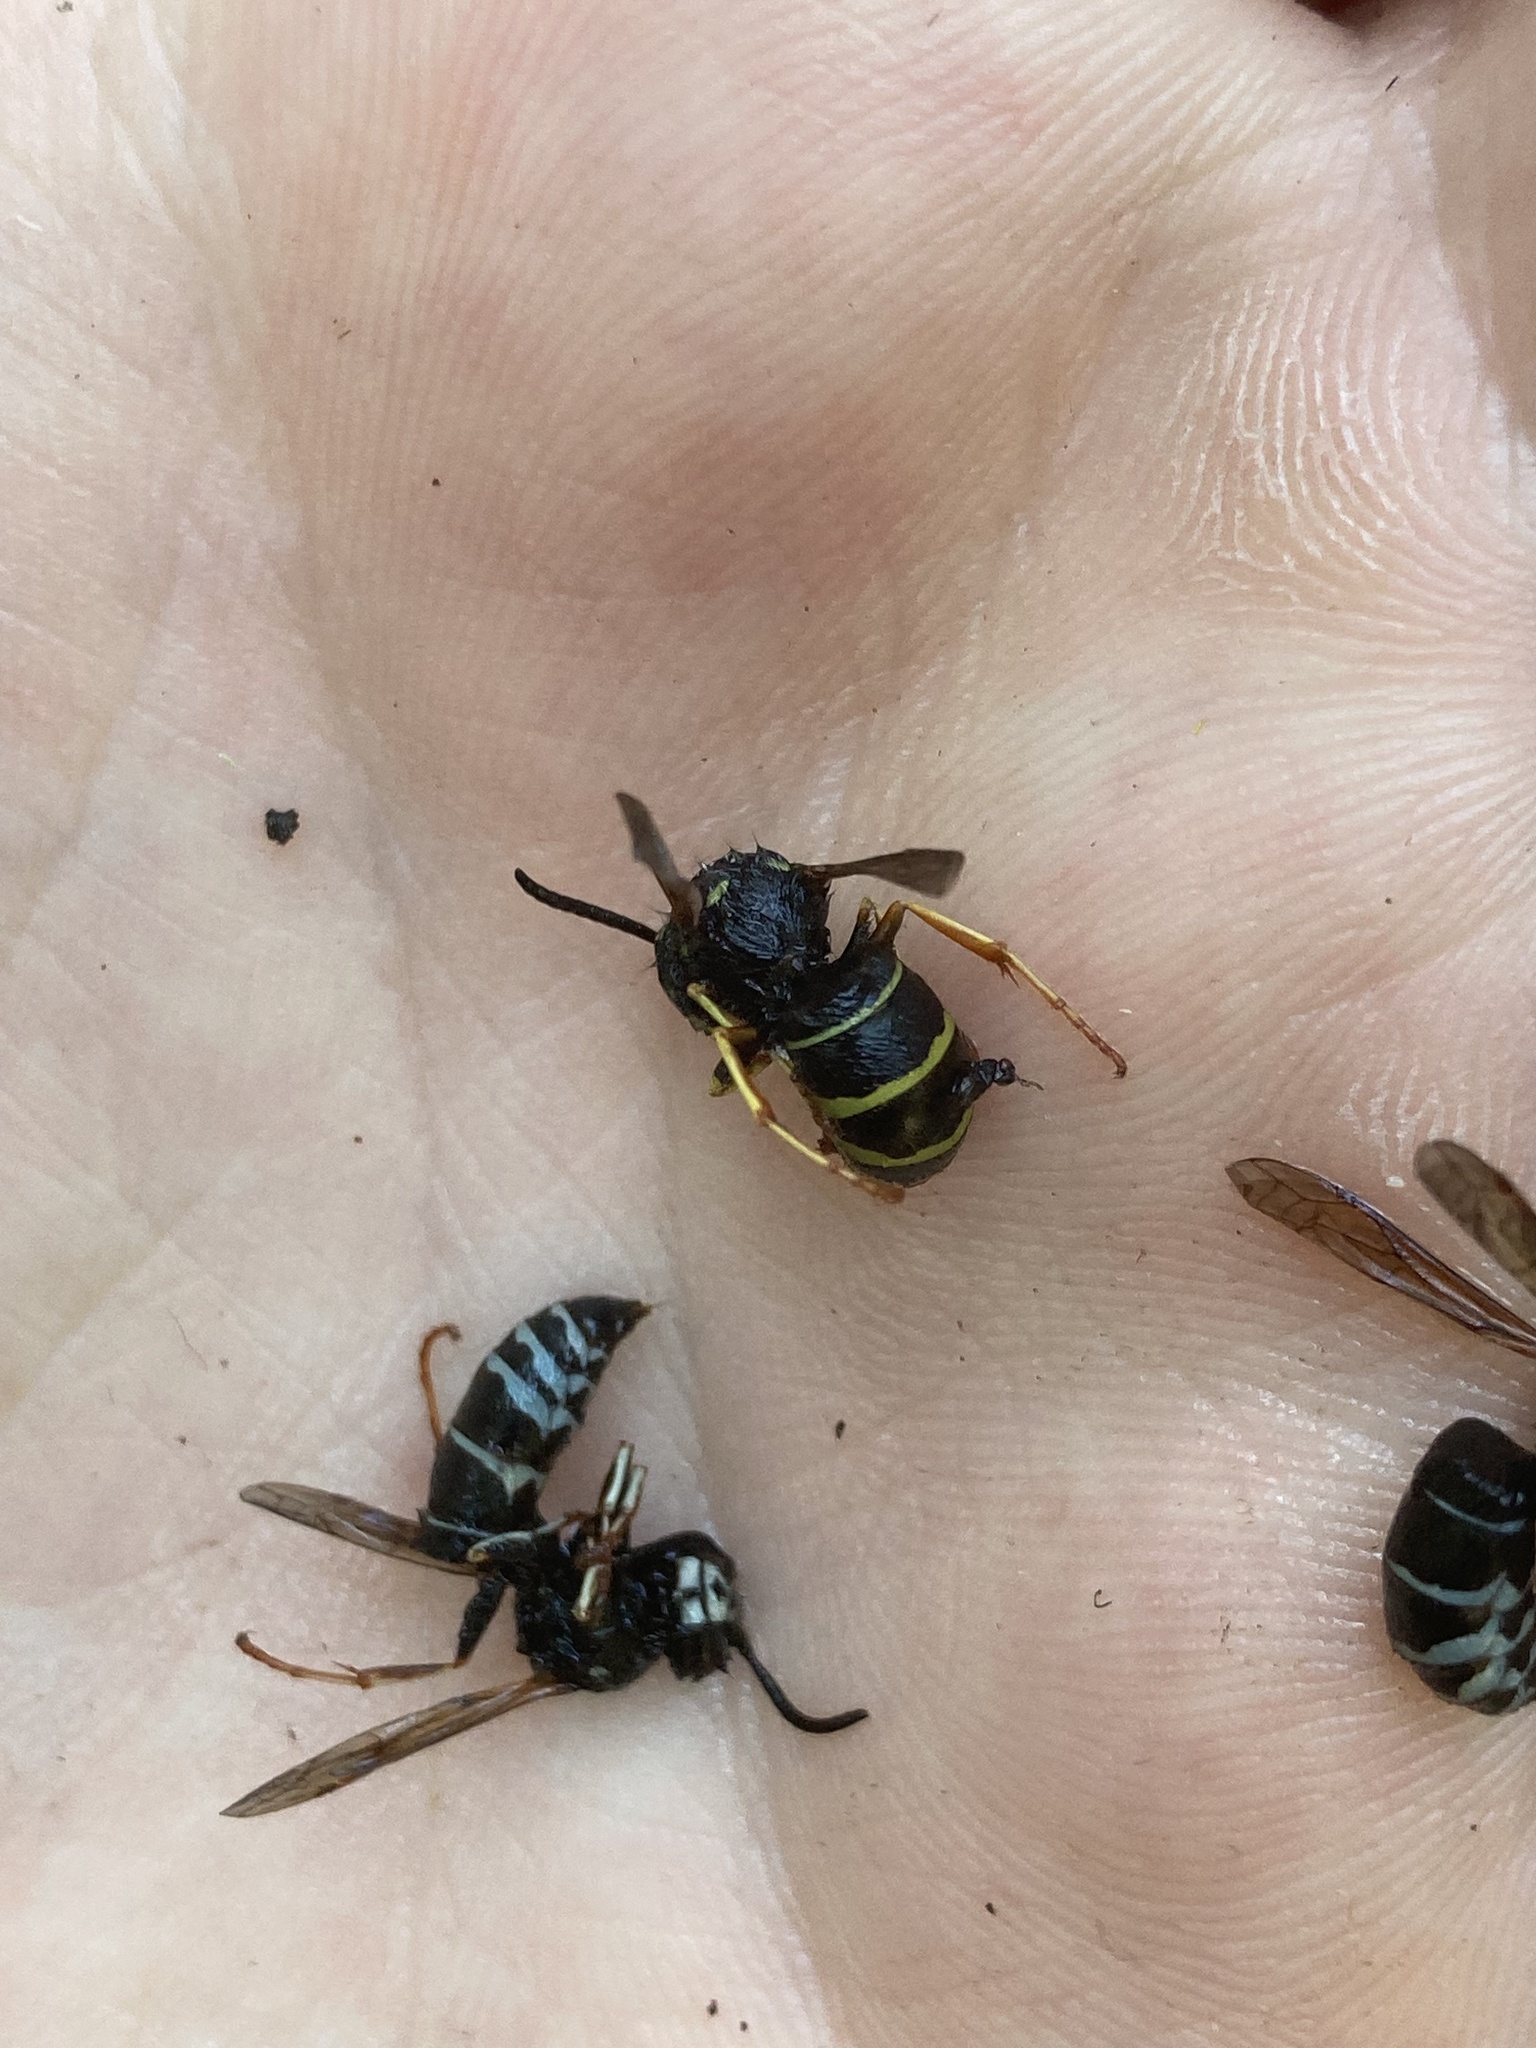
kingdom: Animalia
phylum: Arthropoda
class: Insecta
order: Hymenoptera
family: Vespidae
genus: Vespula
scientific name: Vespula acadica
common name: Forest yellowjacket
